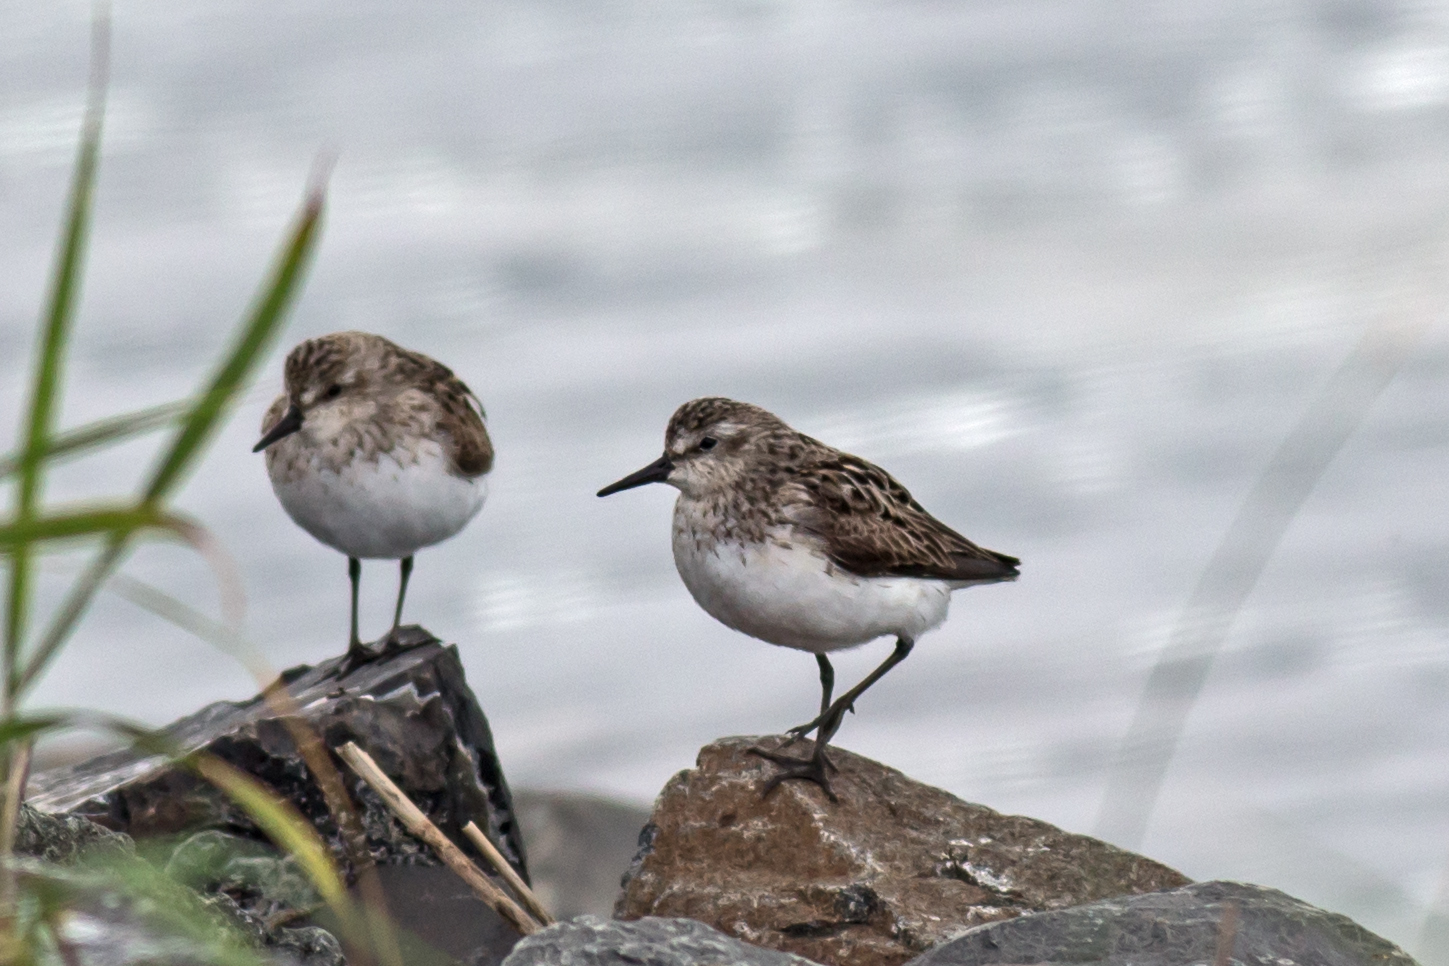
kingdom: Animalia
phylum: Chordata
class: Aves
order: Charadriiformes
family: Scolopacidae
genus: Calidris
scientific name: Calidris pusilla
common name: Semipalmated sandpiper
